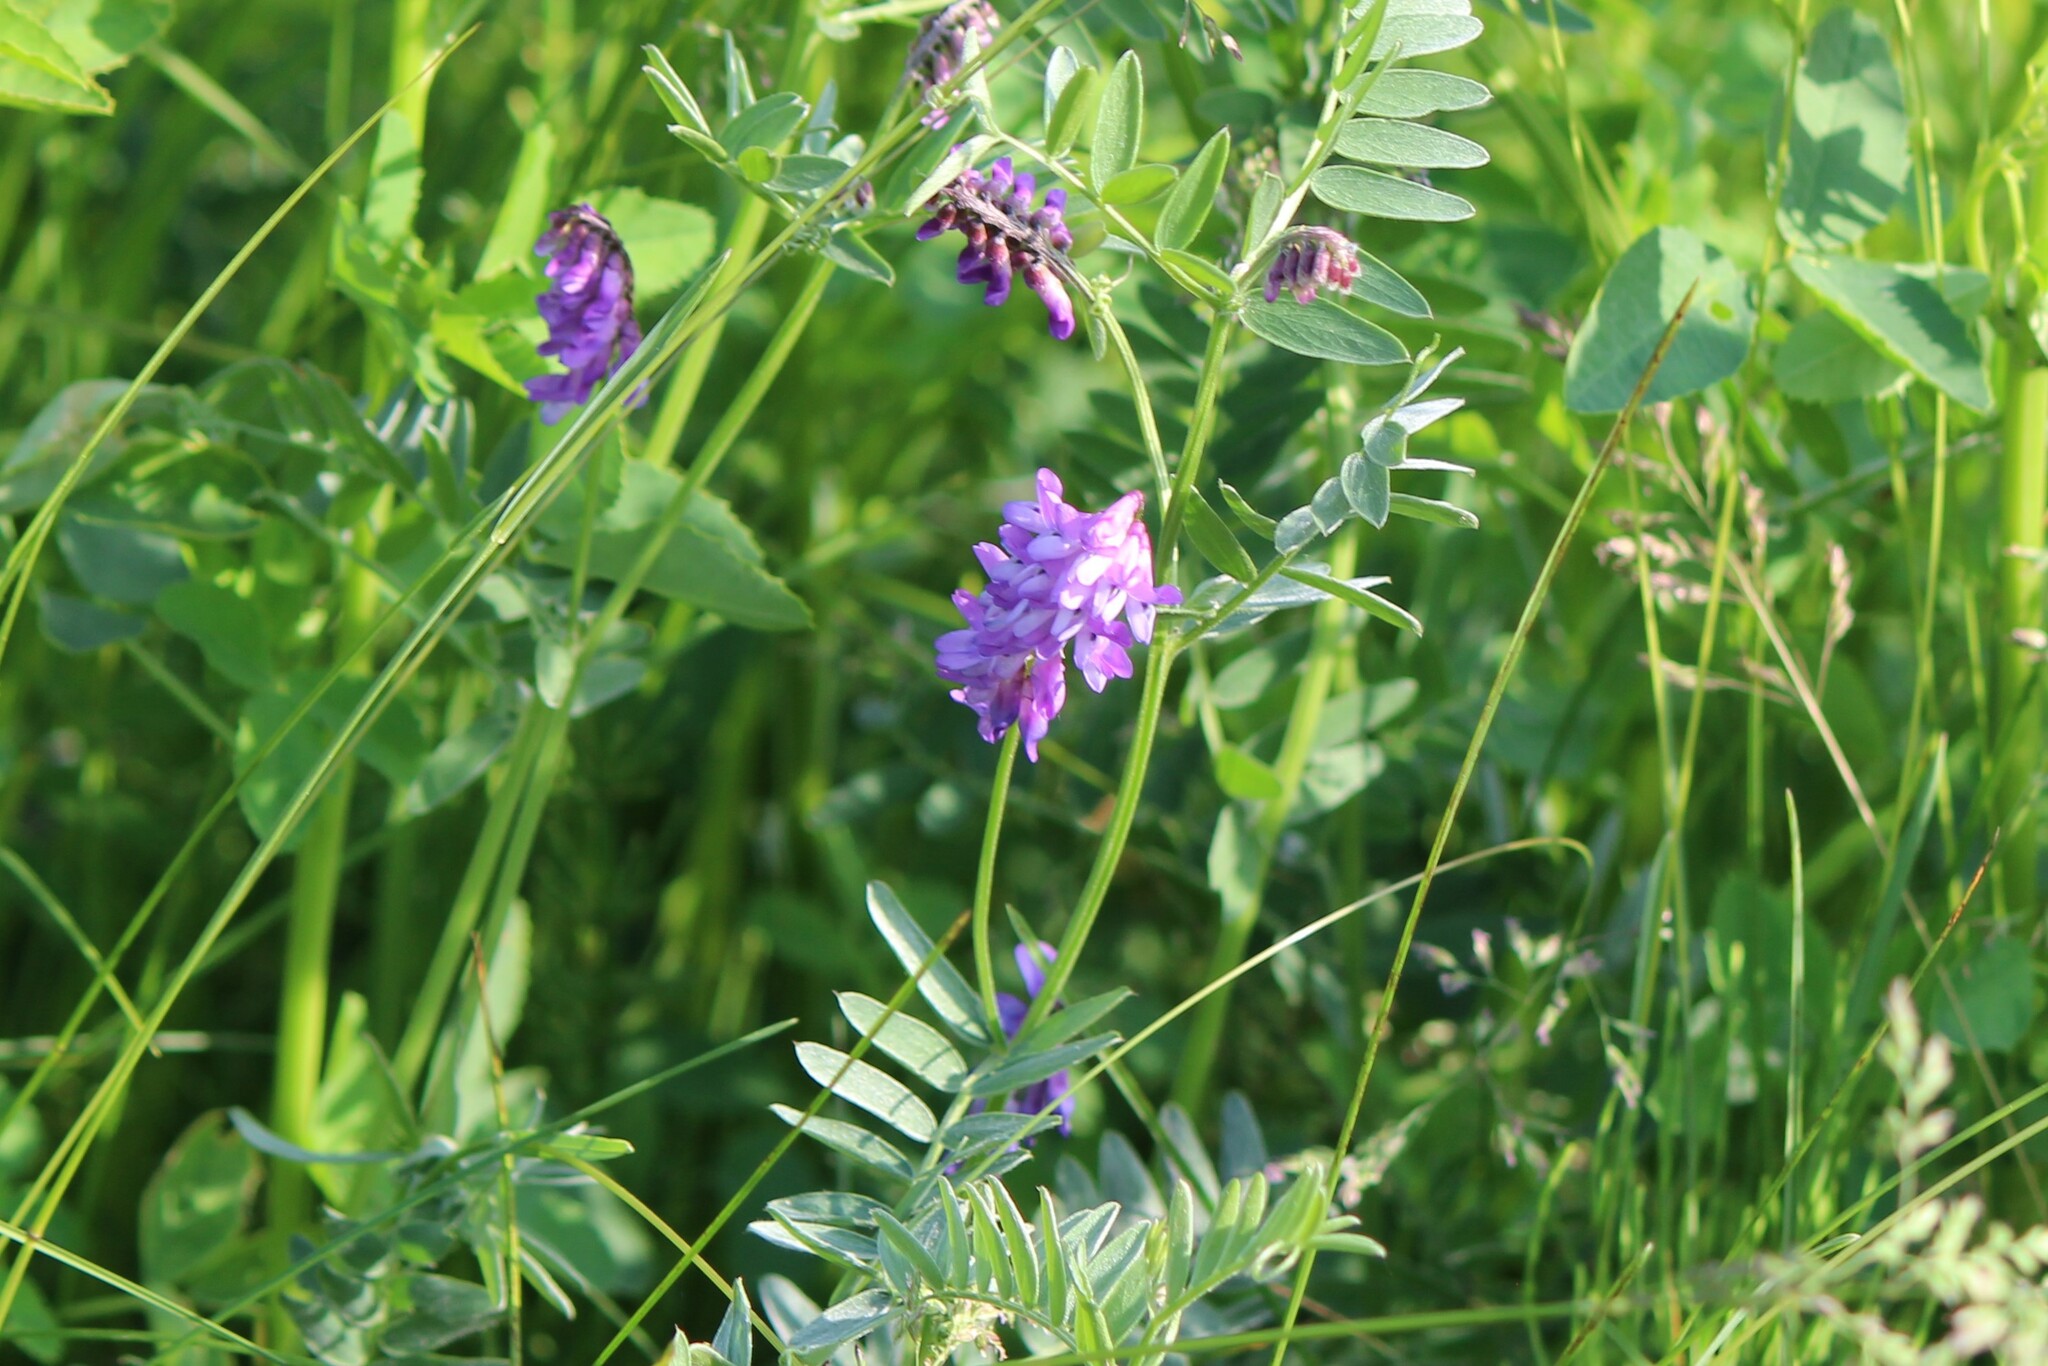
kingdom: Plantae
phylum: Tracheophyta
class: Magnoliopsida
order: Fabales
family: Fabaceae
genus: Vicia
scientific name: Vicia cracca
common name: Bird vetch
